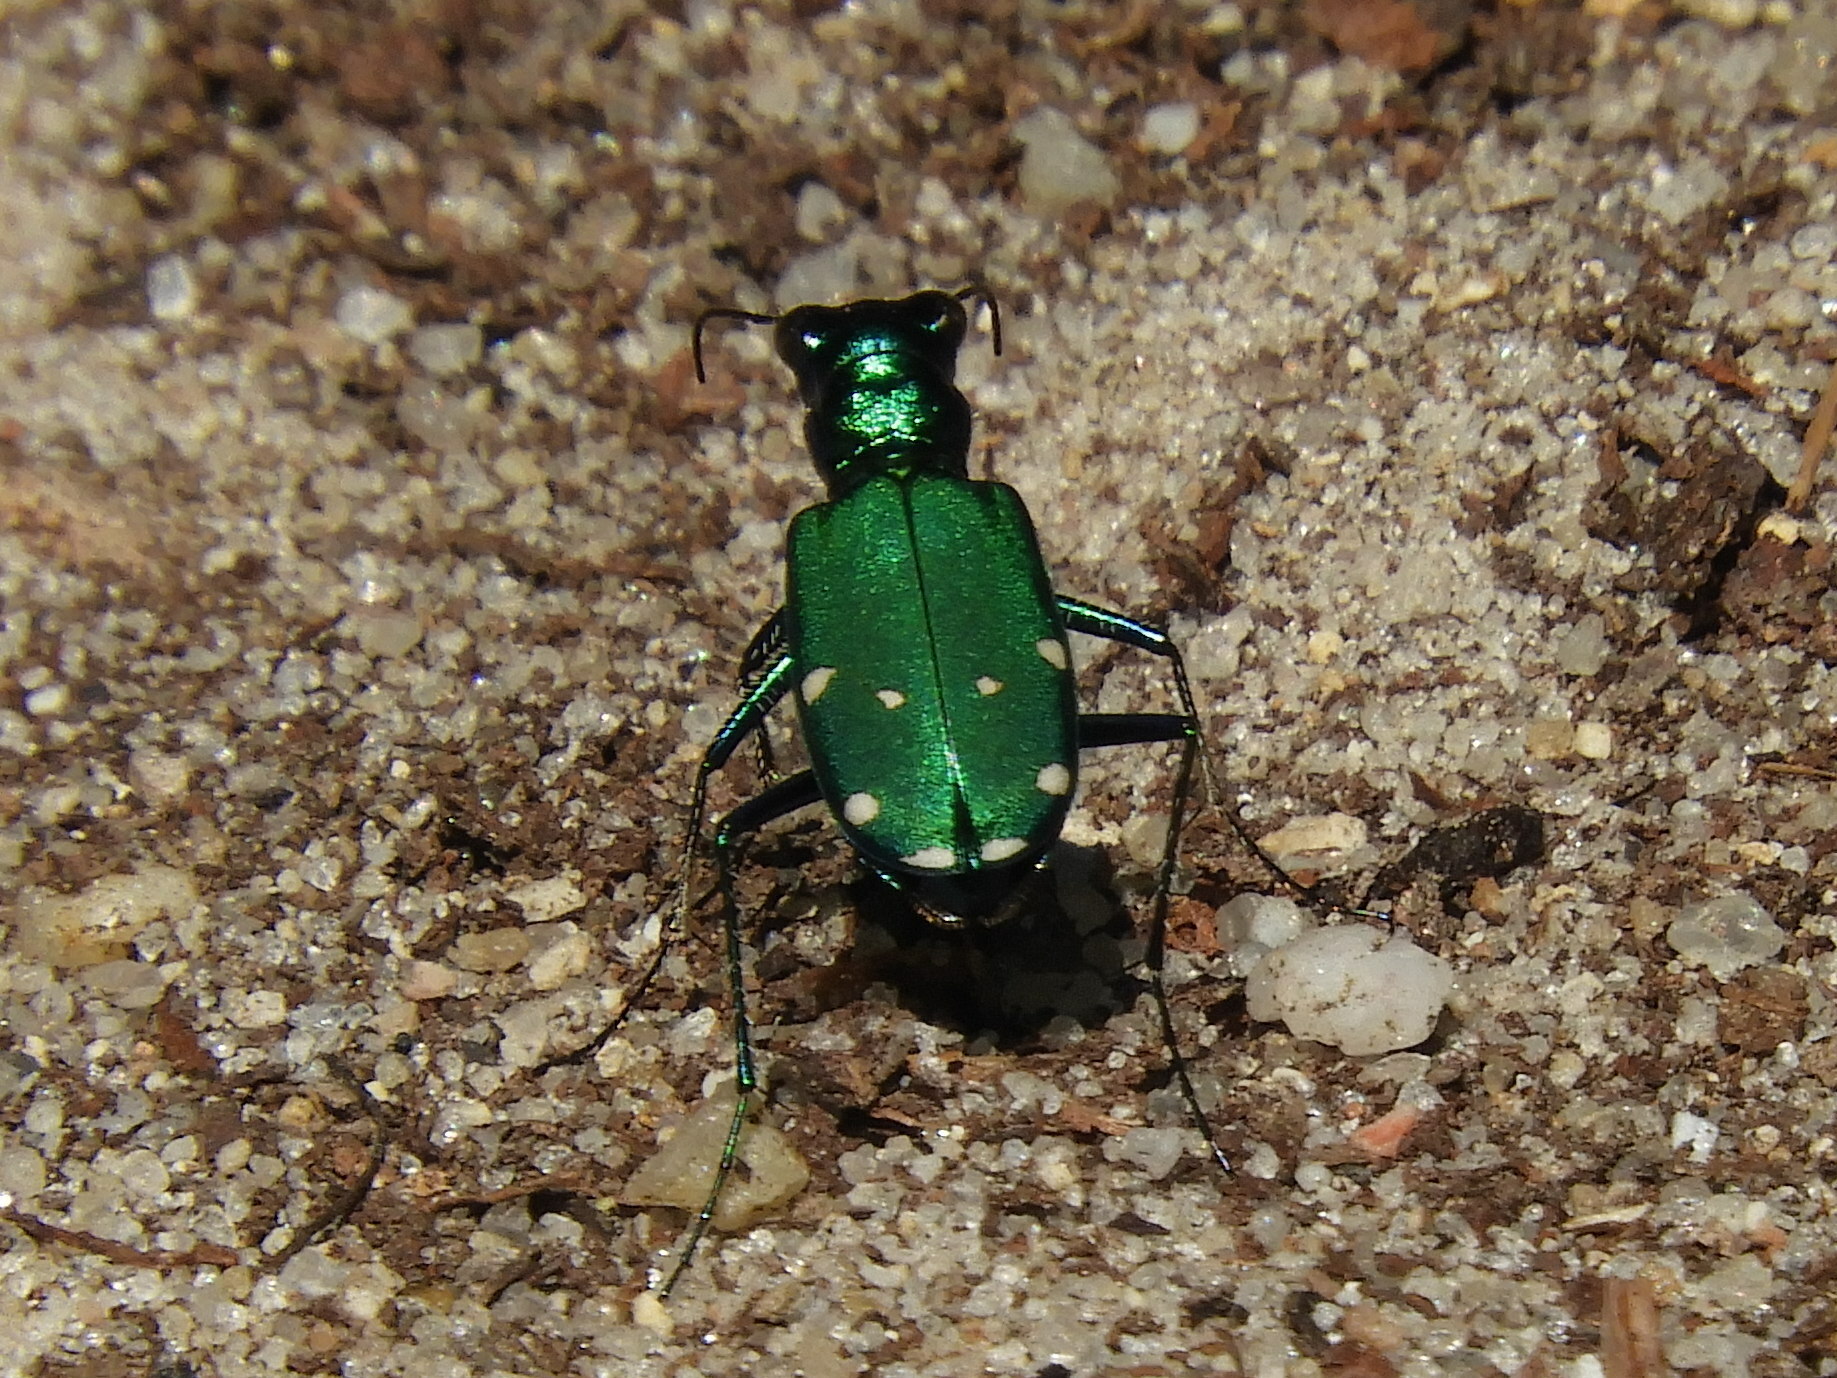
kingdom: Animalia
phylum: Arthropoda
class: Insecta
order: Coleoptera
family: Carabidae
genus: Cicindela
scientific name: Cicindela sexguttata
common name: Six-spotted tiger beetle
